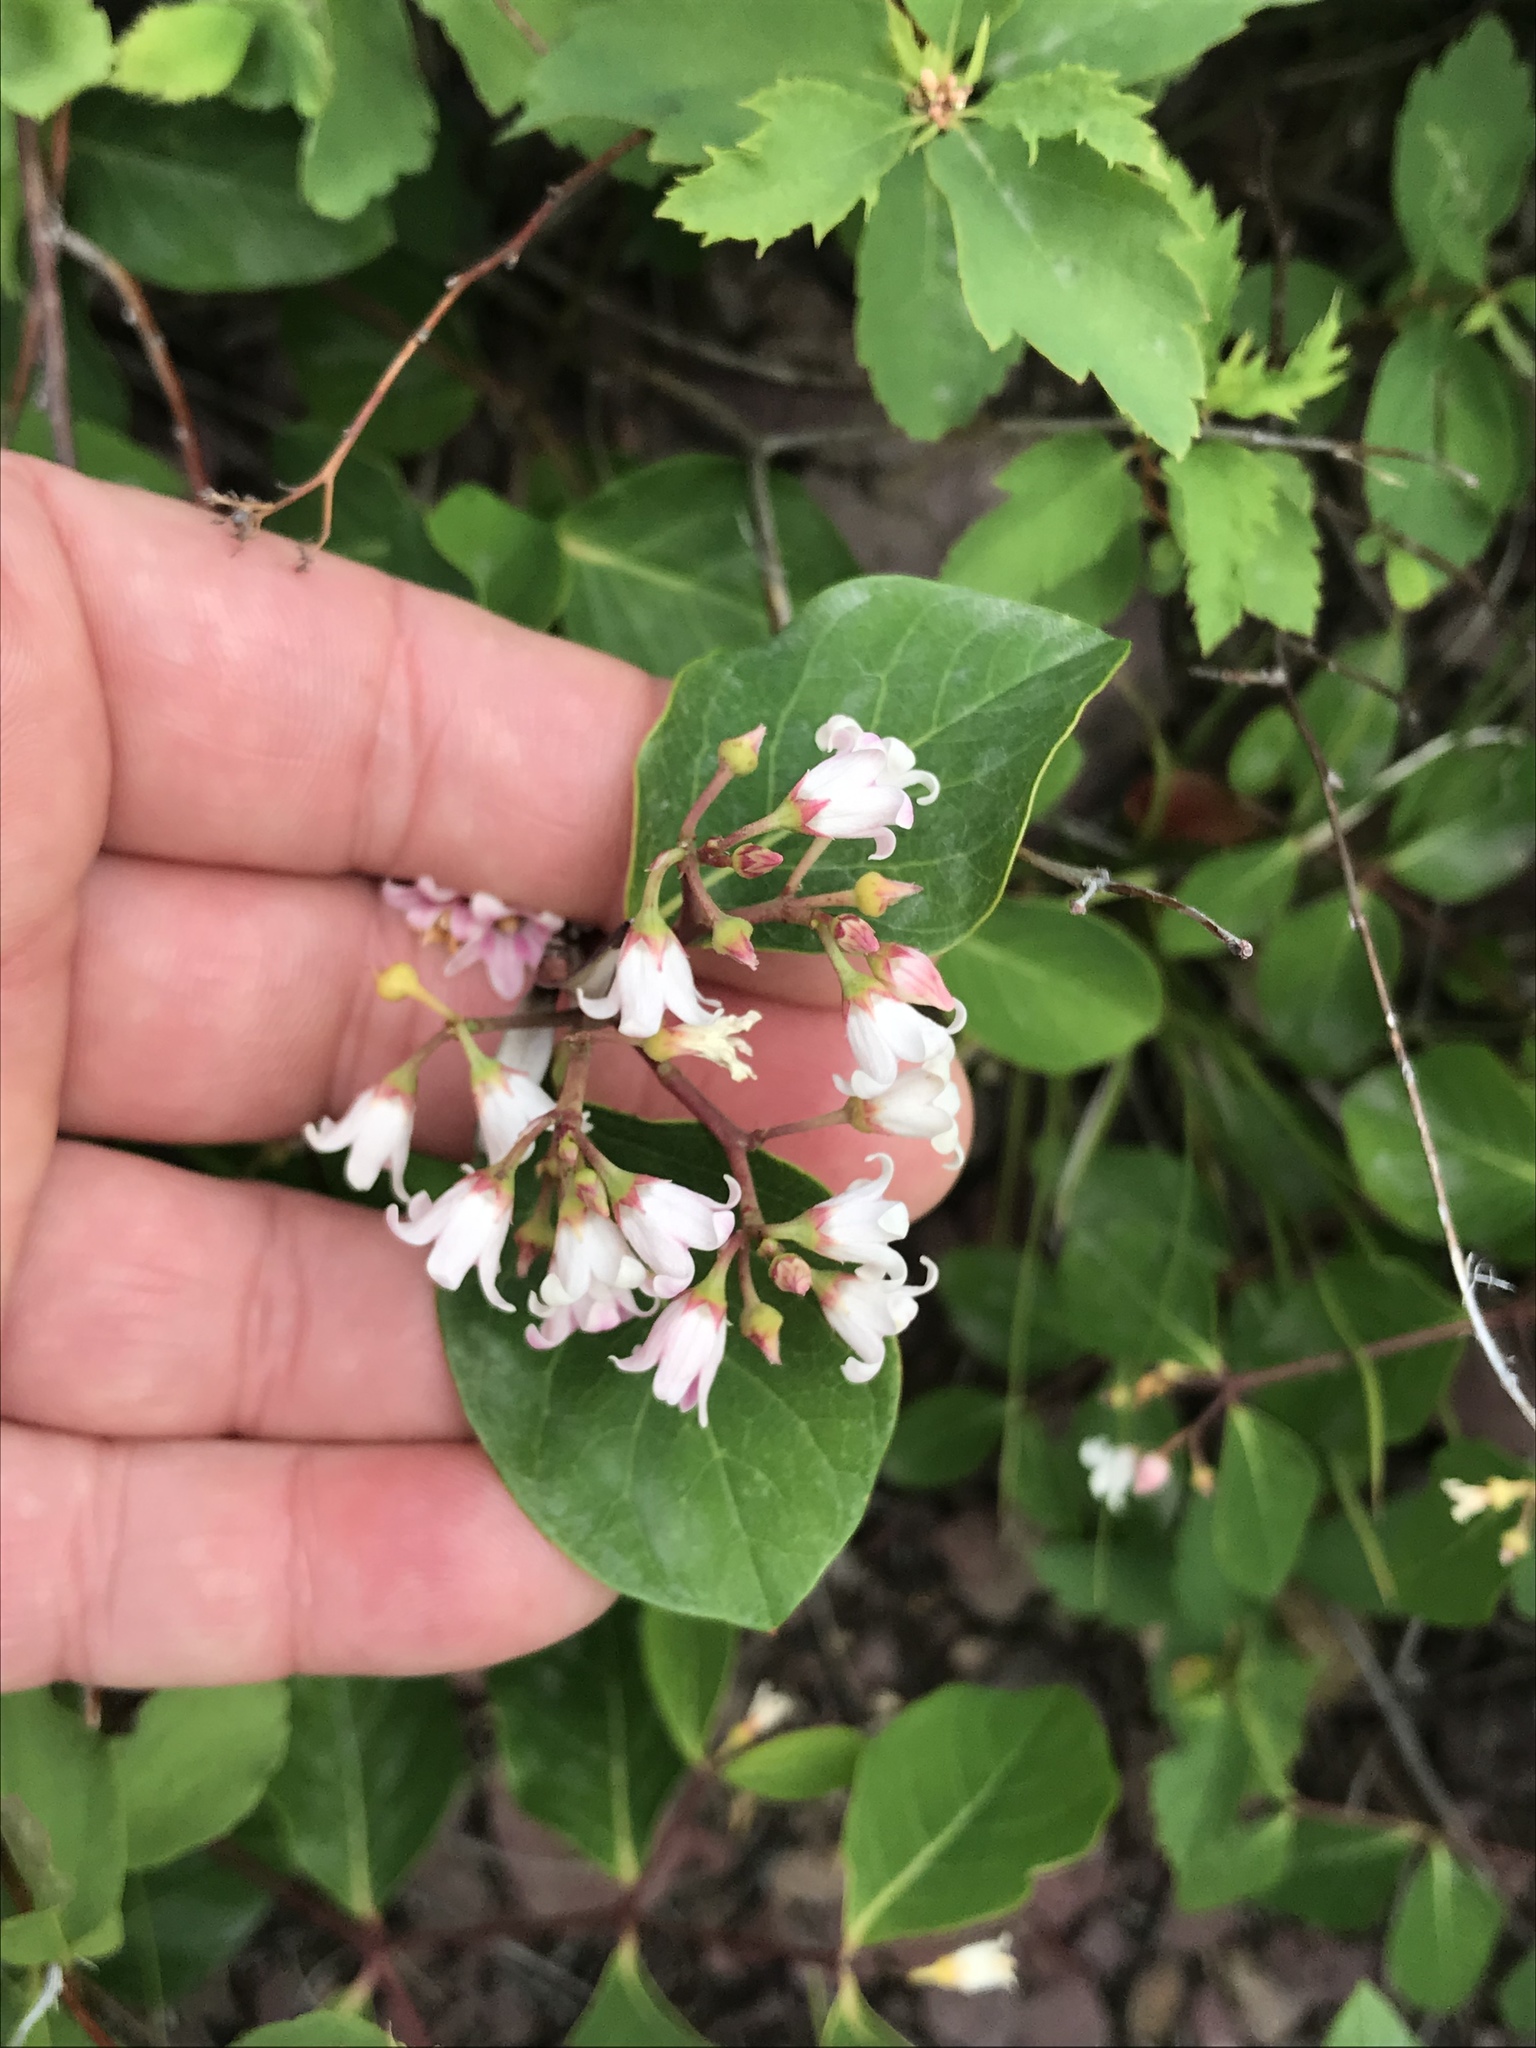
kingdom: Plantae
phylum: Tracheophyta
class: Magnoliopsida
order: Gentianales
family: Apocynaceae
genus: Apocynum
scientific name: Apocynum androsaemifolium
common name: Spreading dogbane
